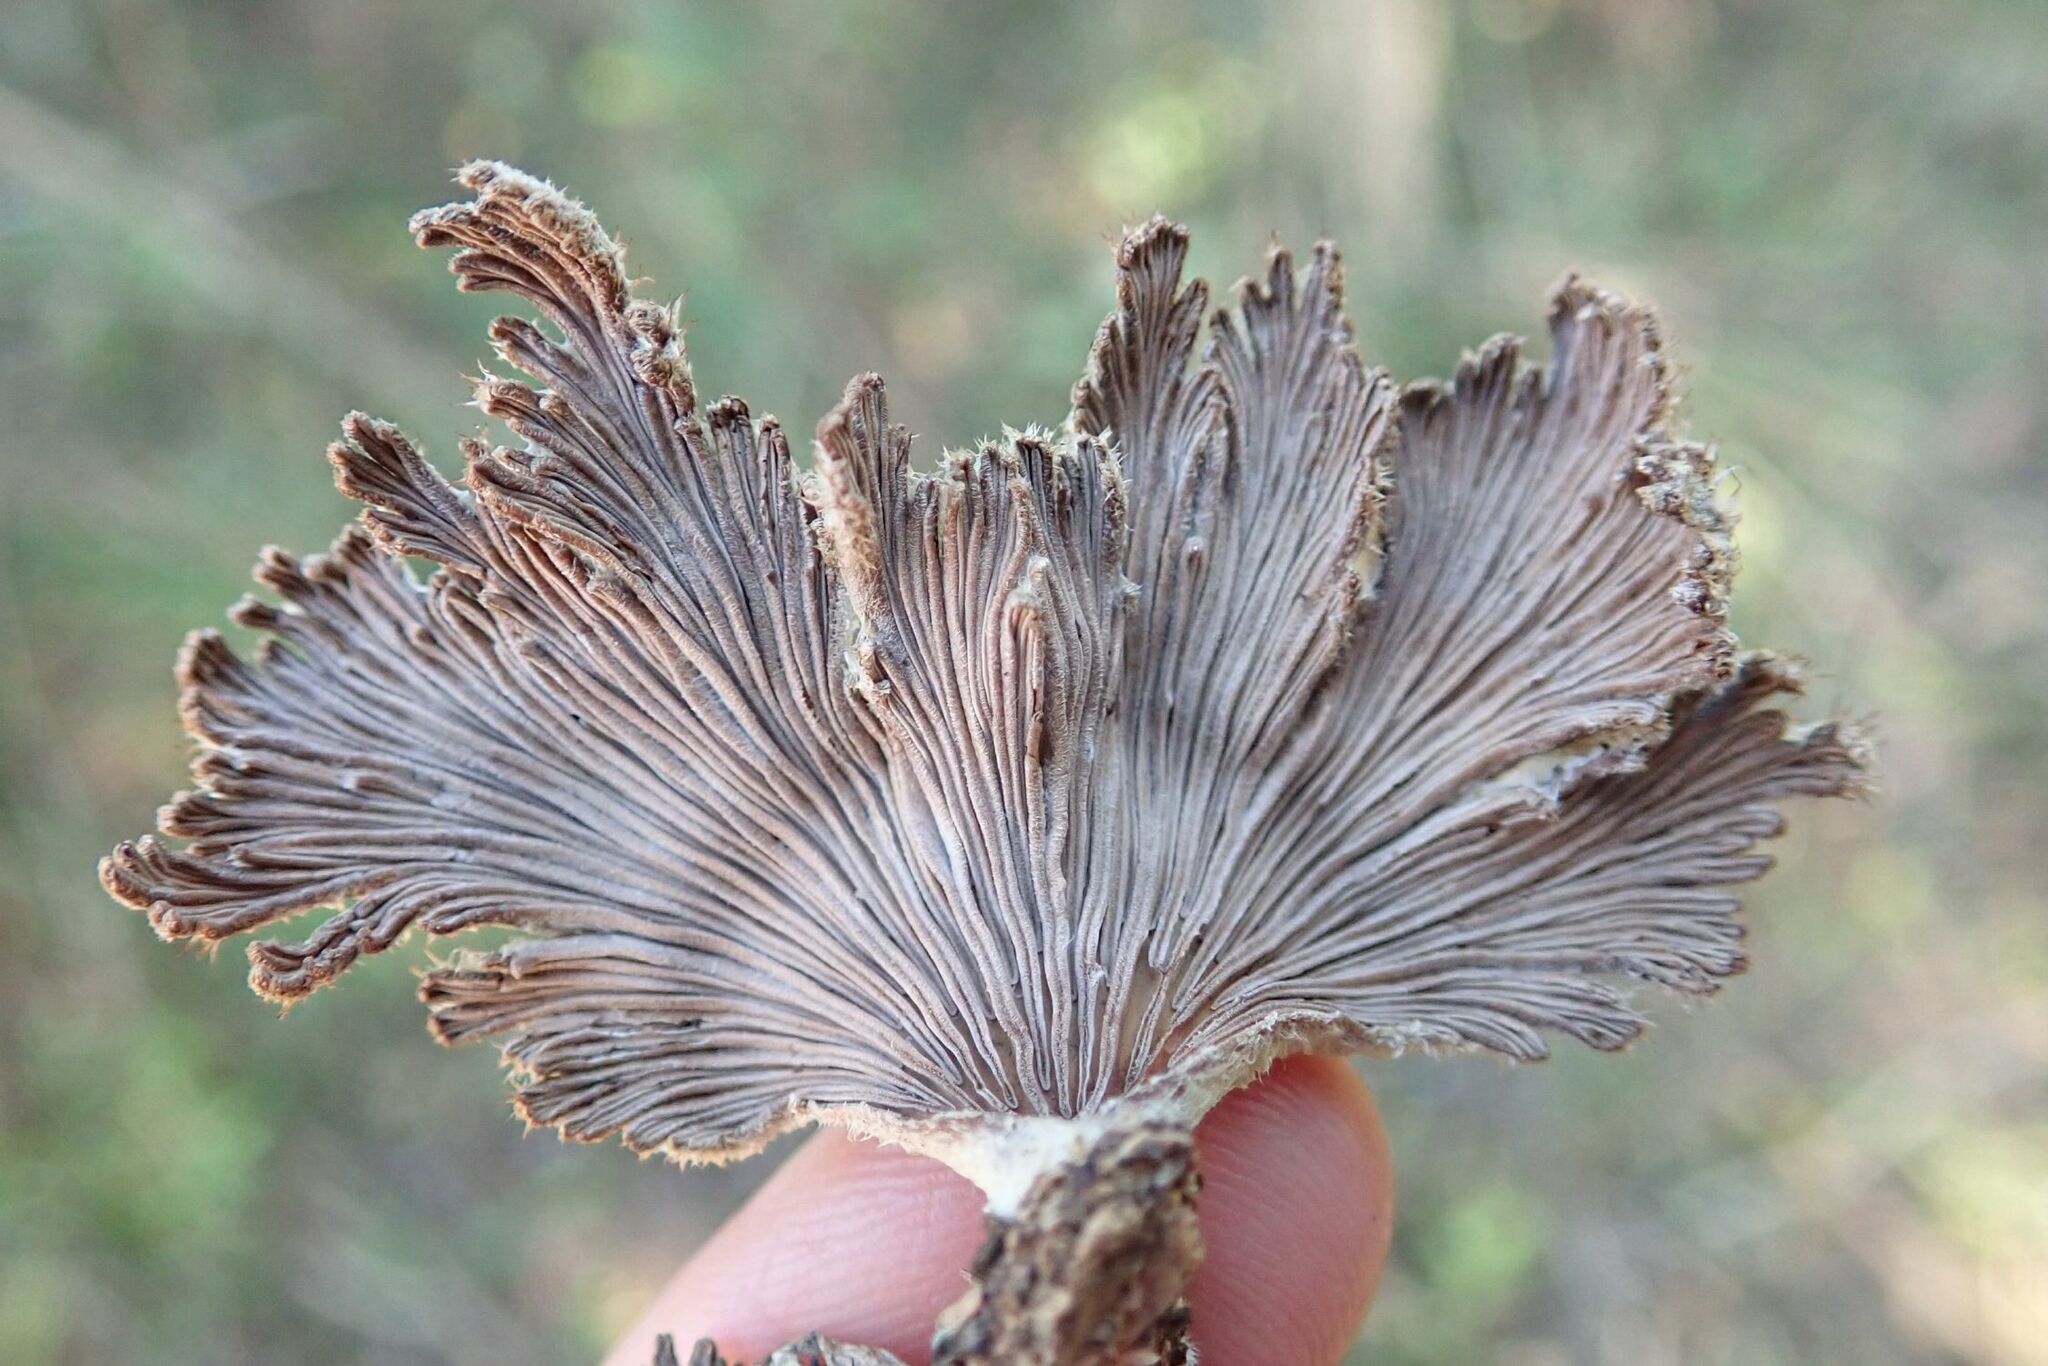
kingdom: Fungi
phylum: Basidiomycota
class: Agaricomycetes
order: Agaricales
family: Schizophyllaceae
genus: Schizophyllum
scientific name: Schizophyllum commune
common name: Common porecrust
